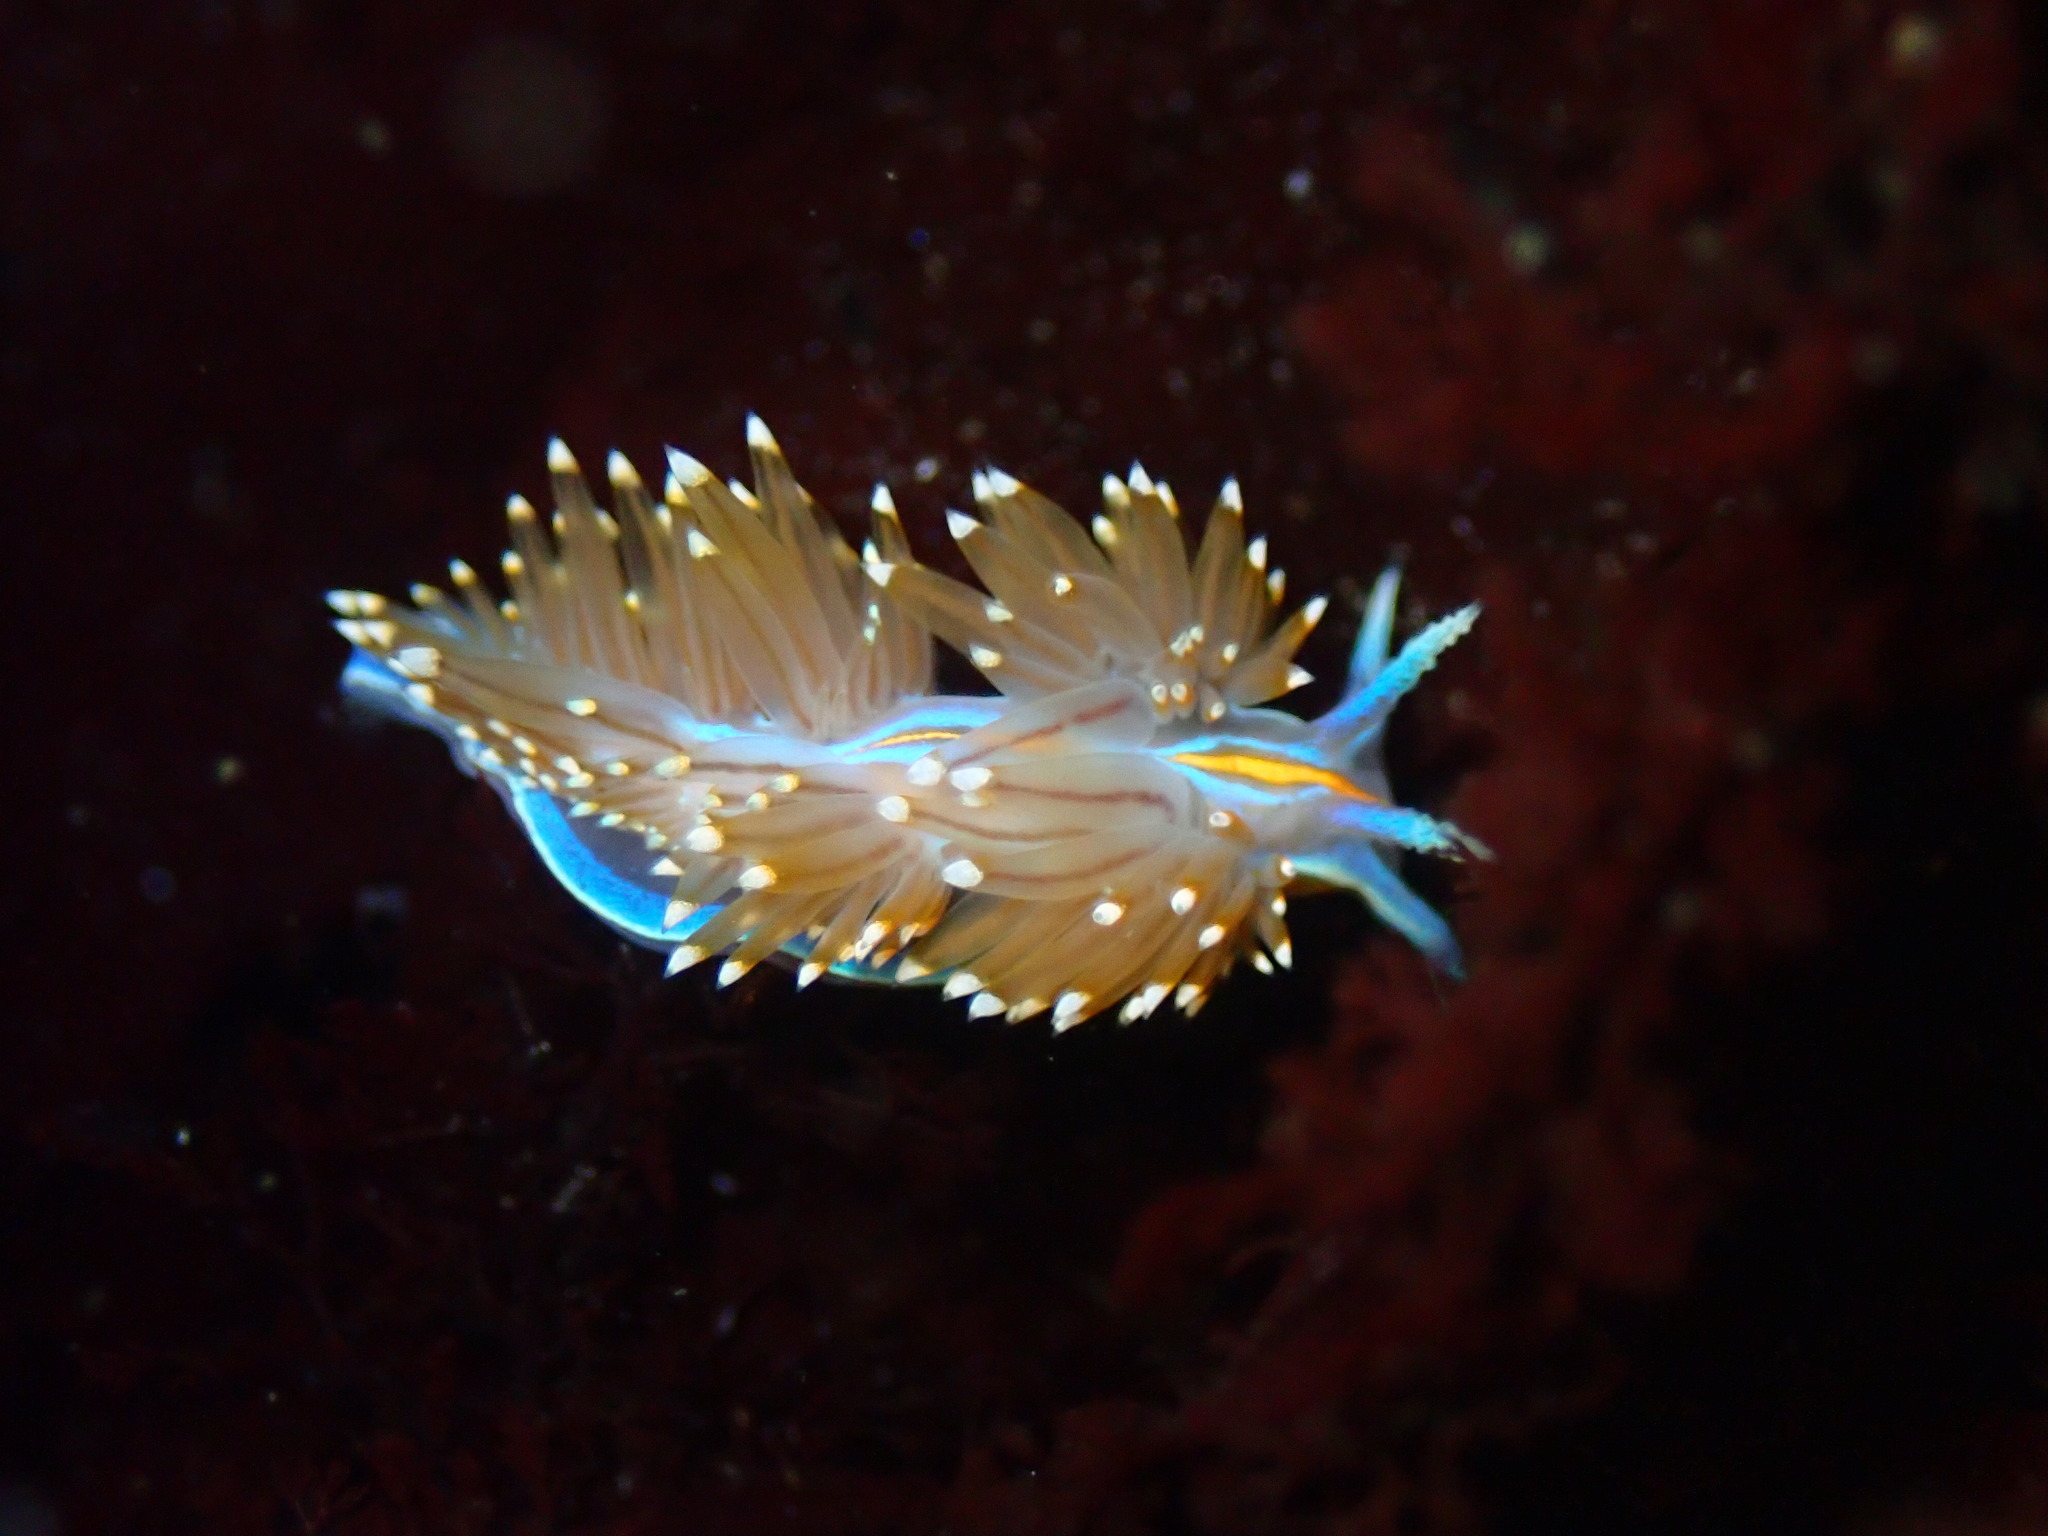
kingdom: Animalia
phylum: Mollusca
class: Gastropoda
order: Nudibranchia
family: Myrrhinidae
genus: Hermissenda
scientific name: Hermissenda opalescens
